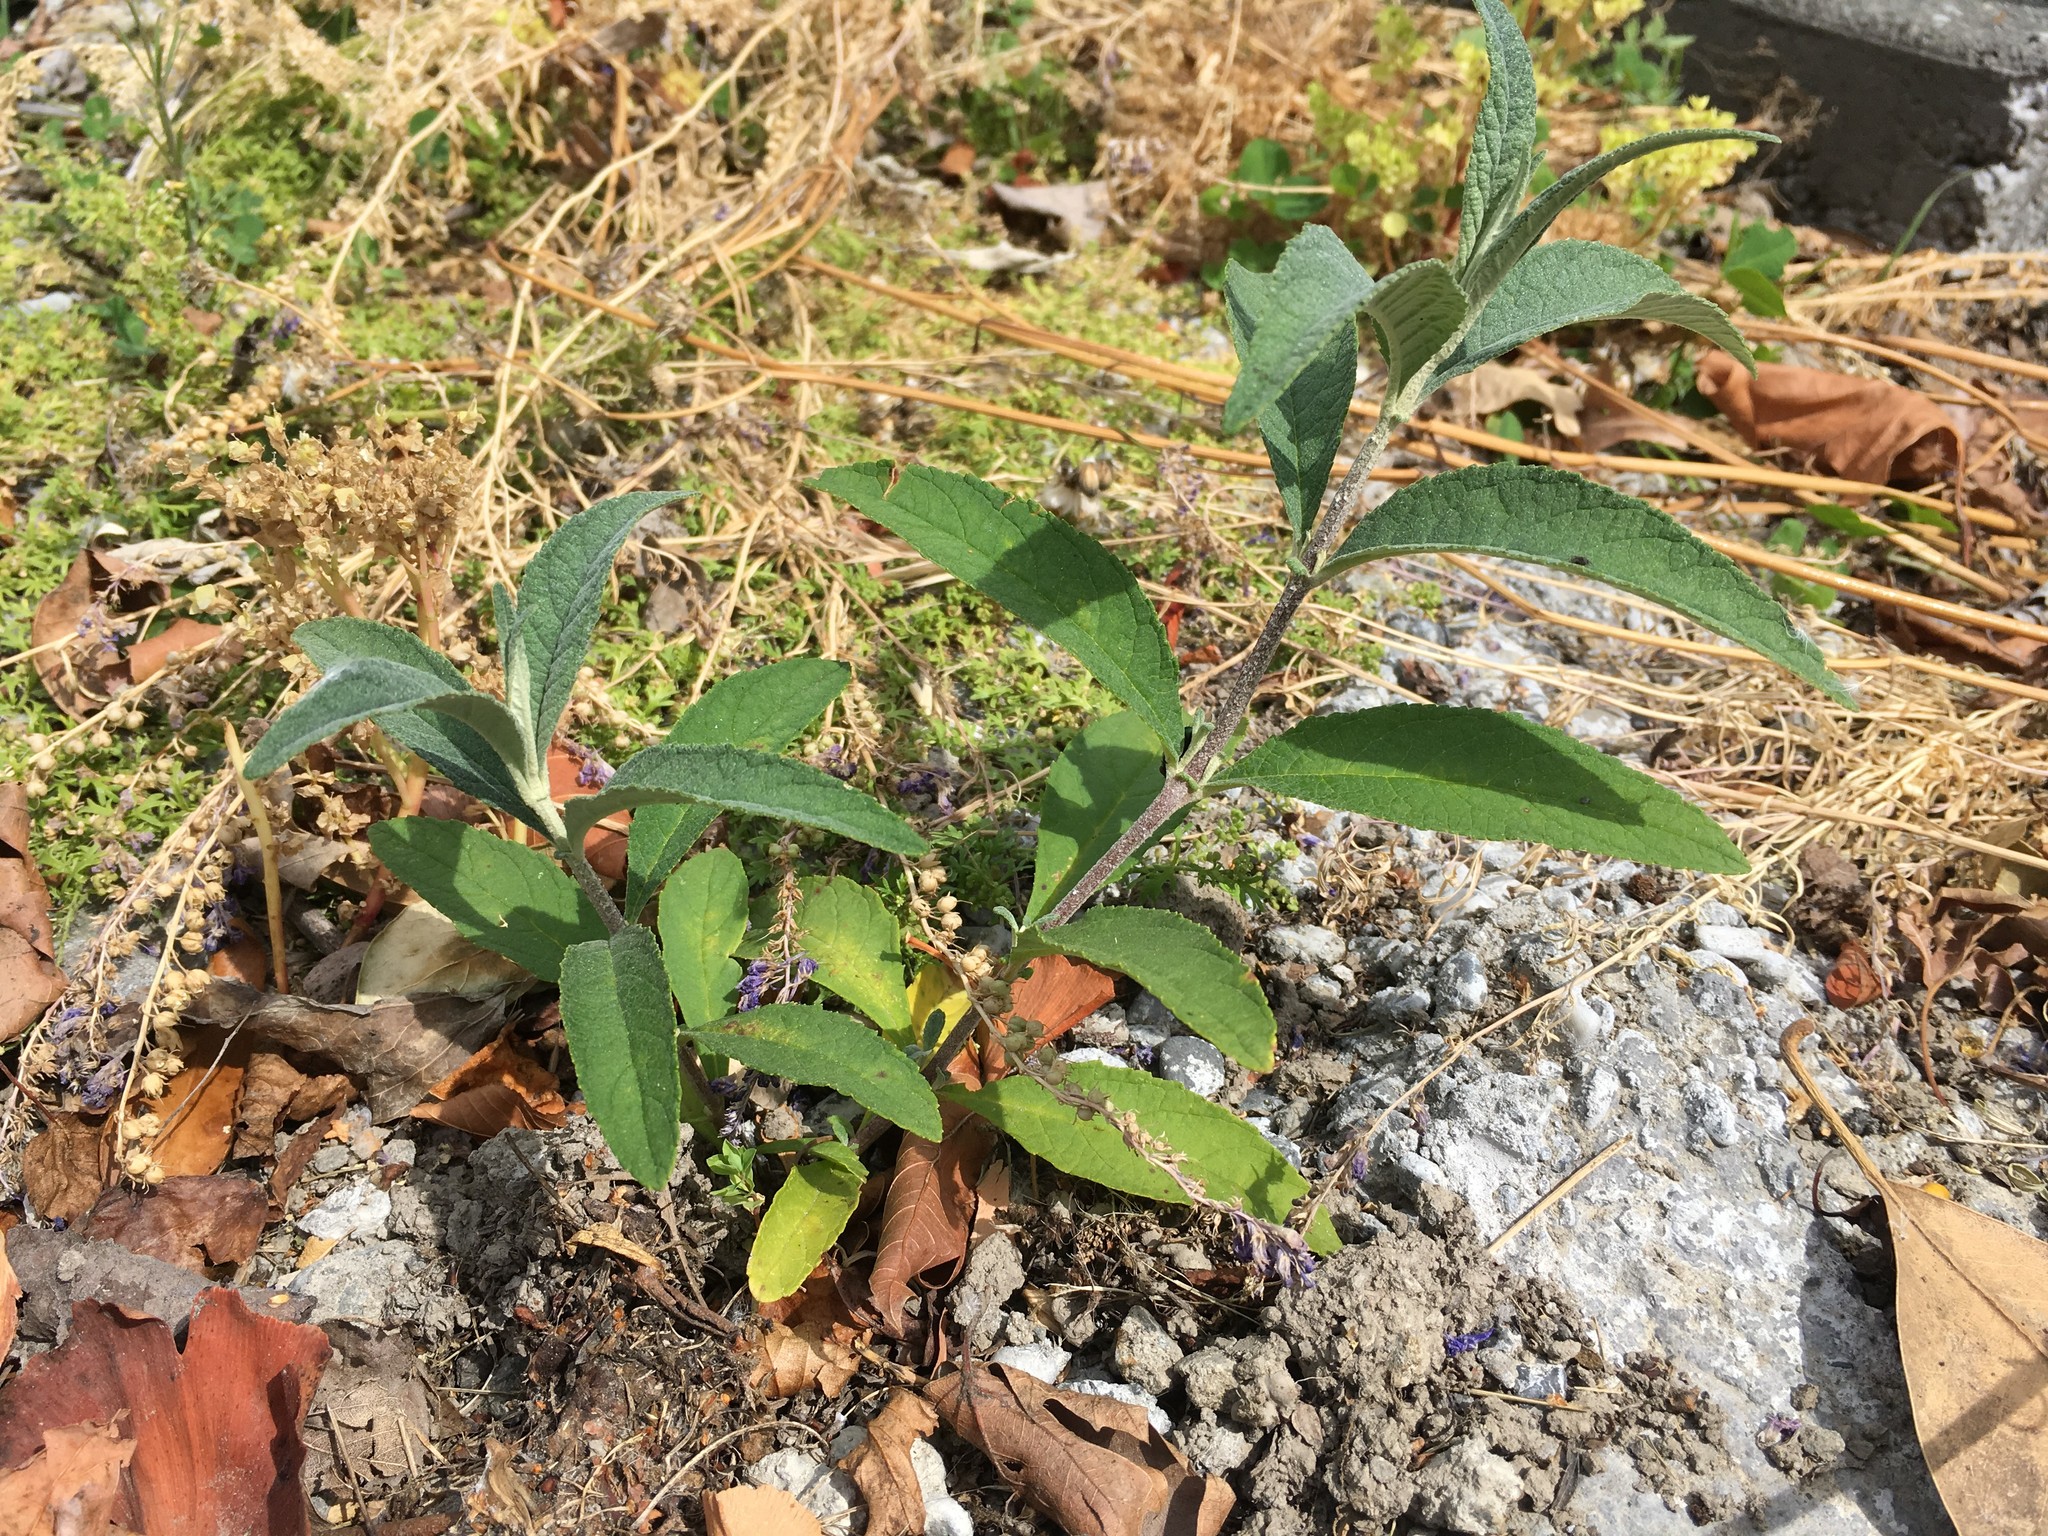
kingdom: Plantae
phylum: Tracheophyta
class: Magnoliopsida
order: Lamiales
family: Scrophulariaceae
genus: Buddleja
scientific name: Buddleja davidii
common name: Butterfly-bush
